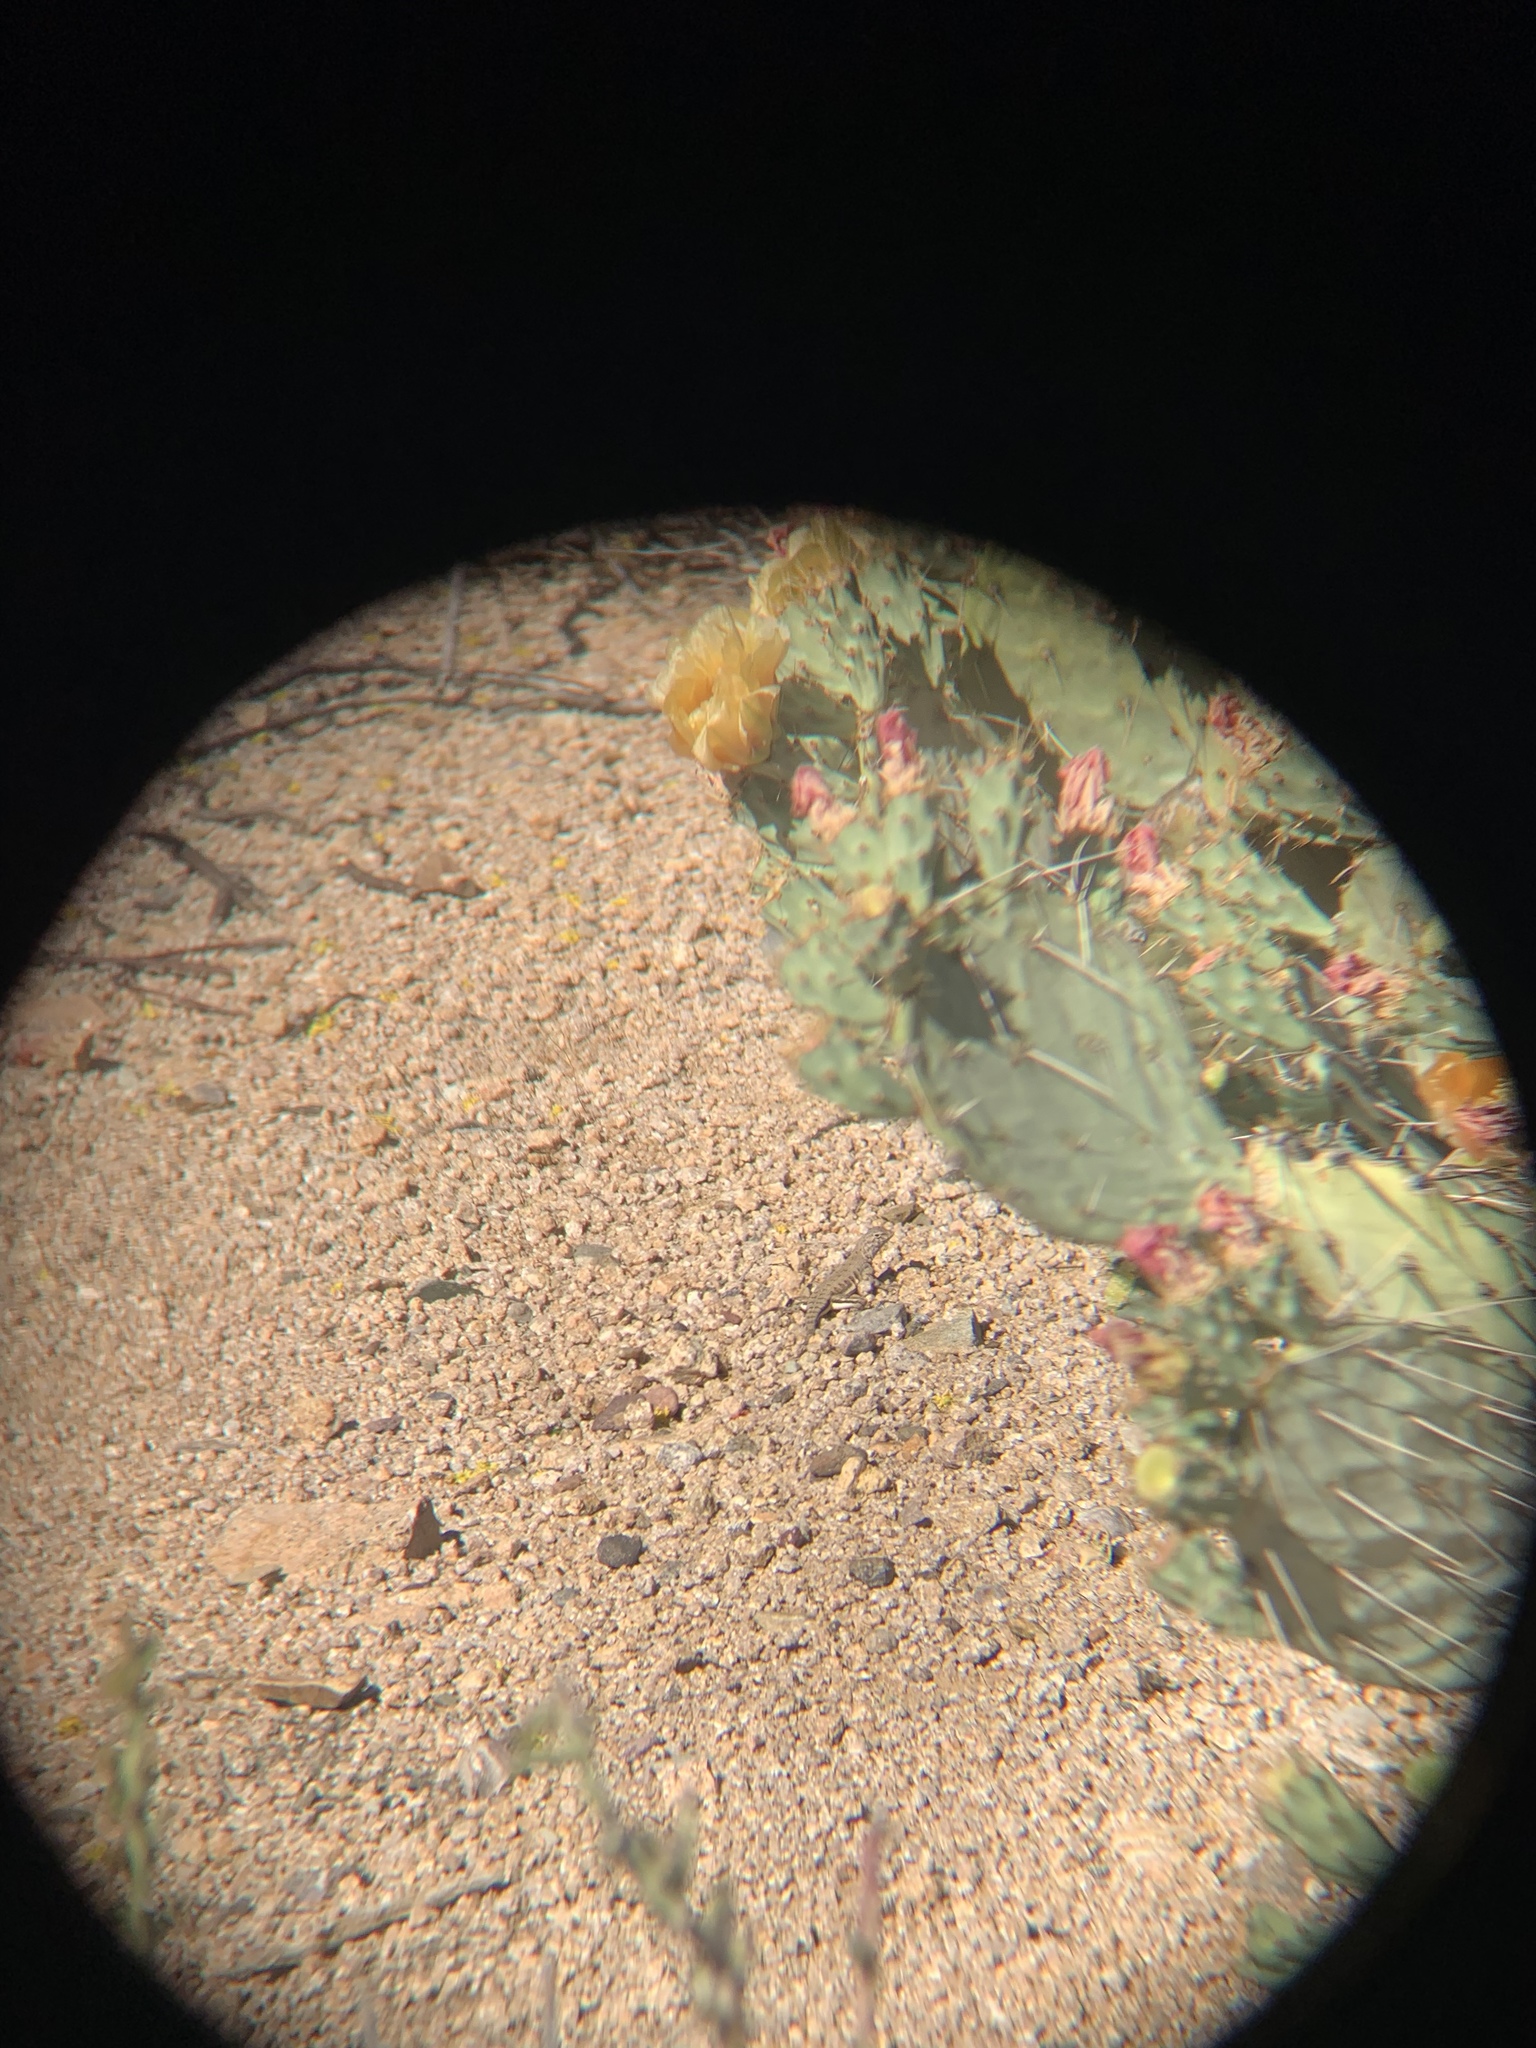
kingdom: Animalia
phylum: Chordata
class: Squamata
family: Phrynosomatidae
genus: Callisaurus
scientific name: Callisaurus draconoides
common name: Zebra-tailed lizard
